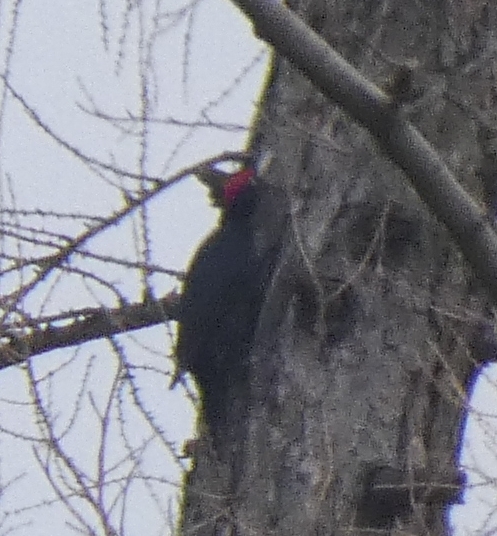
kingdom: Animalia
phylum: Chordata
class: Aves
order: Piciformes
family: Picidae
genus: Dryocopus
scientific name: Dryocopus martius
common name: Black woodpecker
